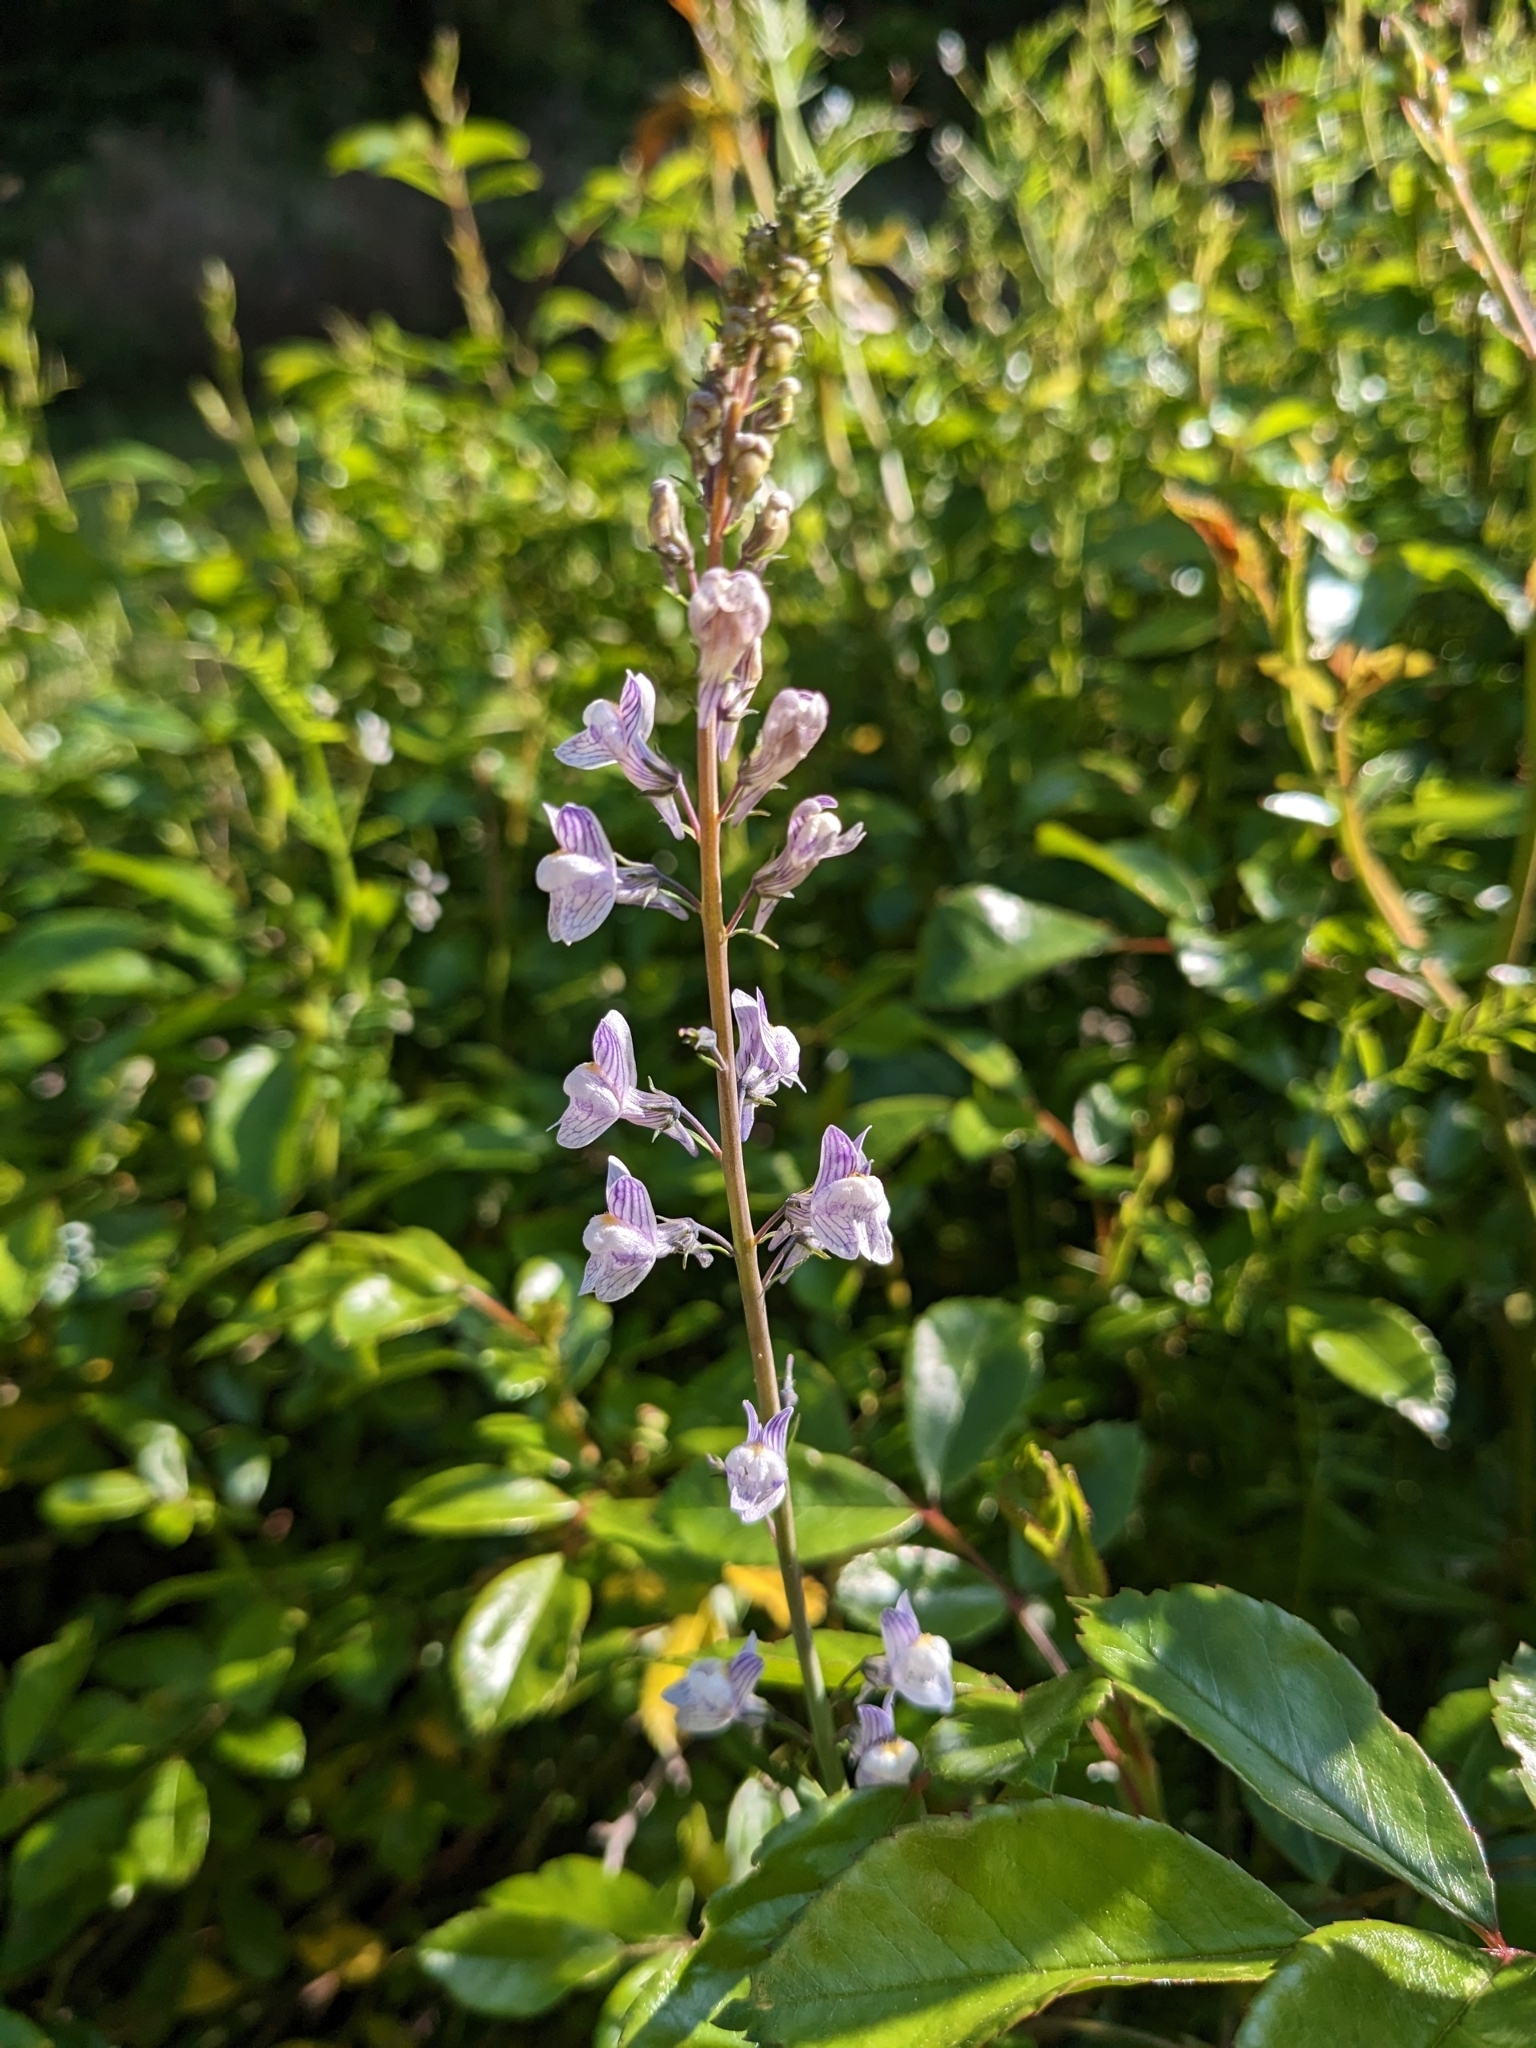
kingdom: Plantae
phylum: Tracheophyta
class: Magnoliopsida
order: Lamiales
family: Plantaginaceae
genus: Linaria
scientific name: Linaria repens
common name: Pale toadflax
